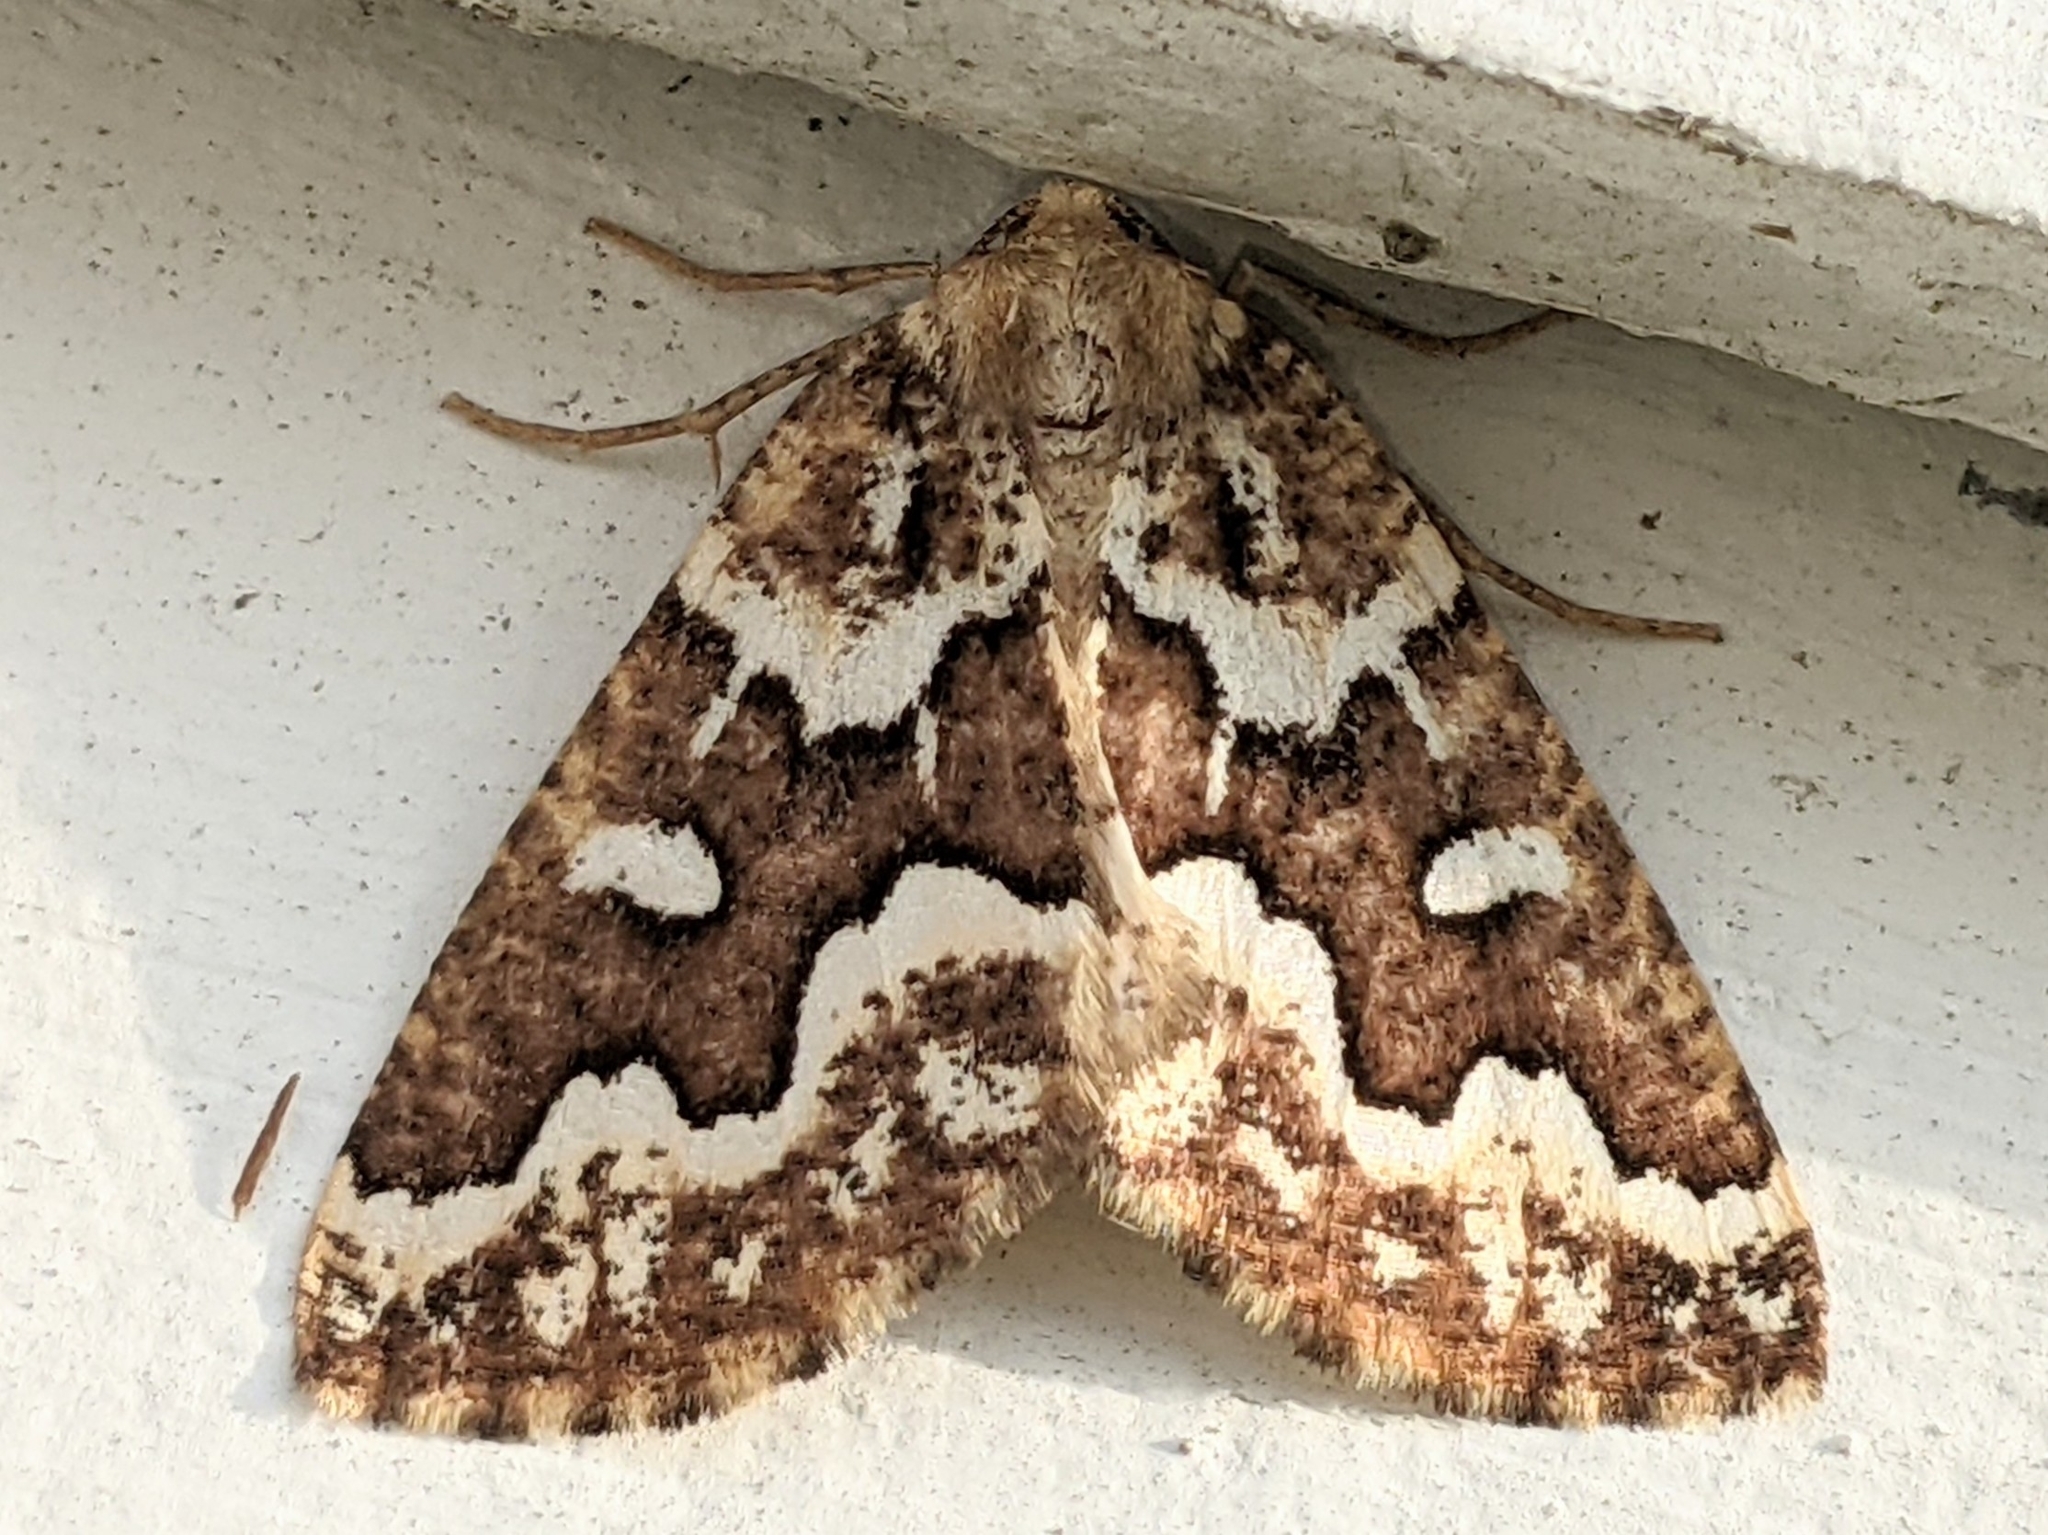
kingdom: Animalia
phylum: Arthropoda
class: Insecta
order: Lepidoptera
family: Geometridae
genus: Caripeta
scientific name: Caripeta divisata
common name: Gray spruce looper
